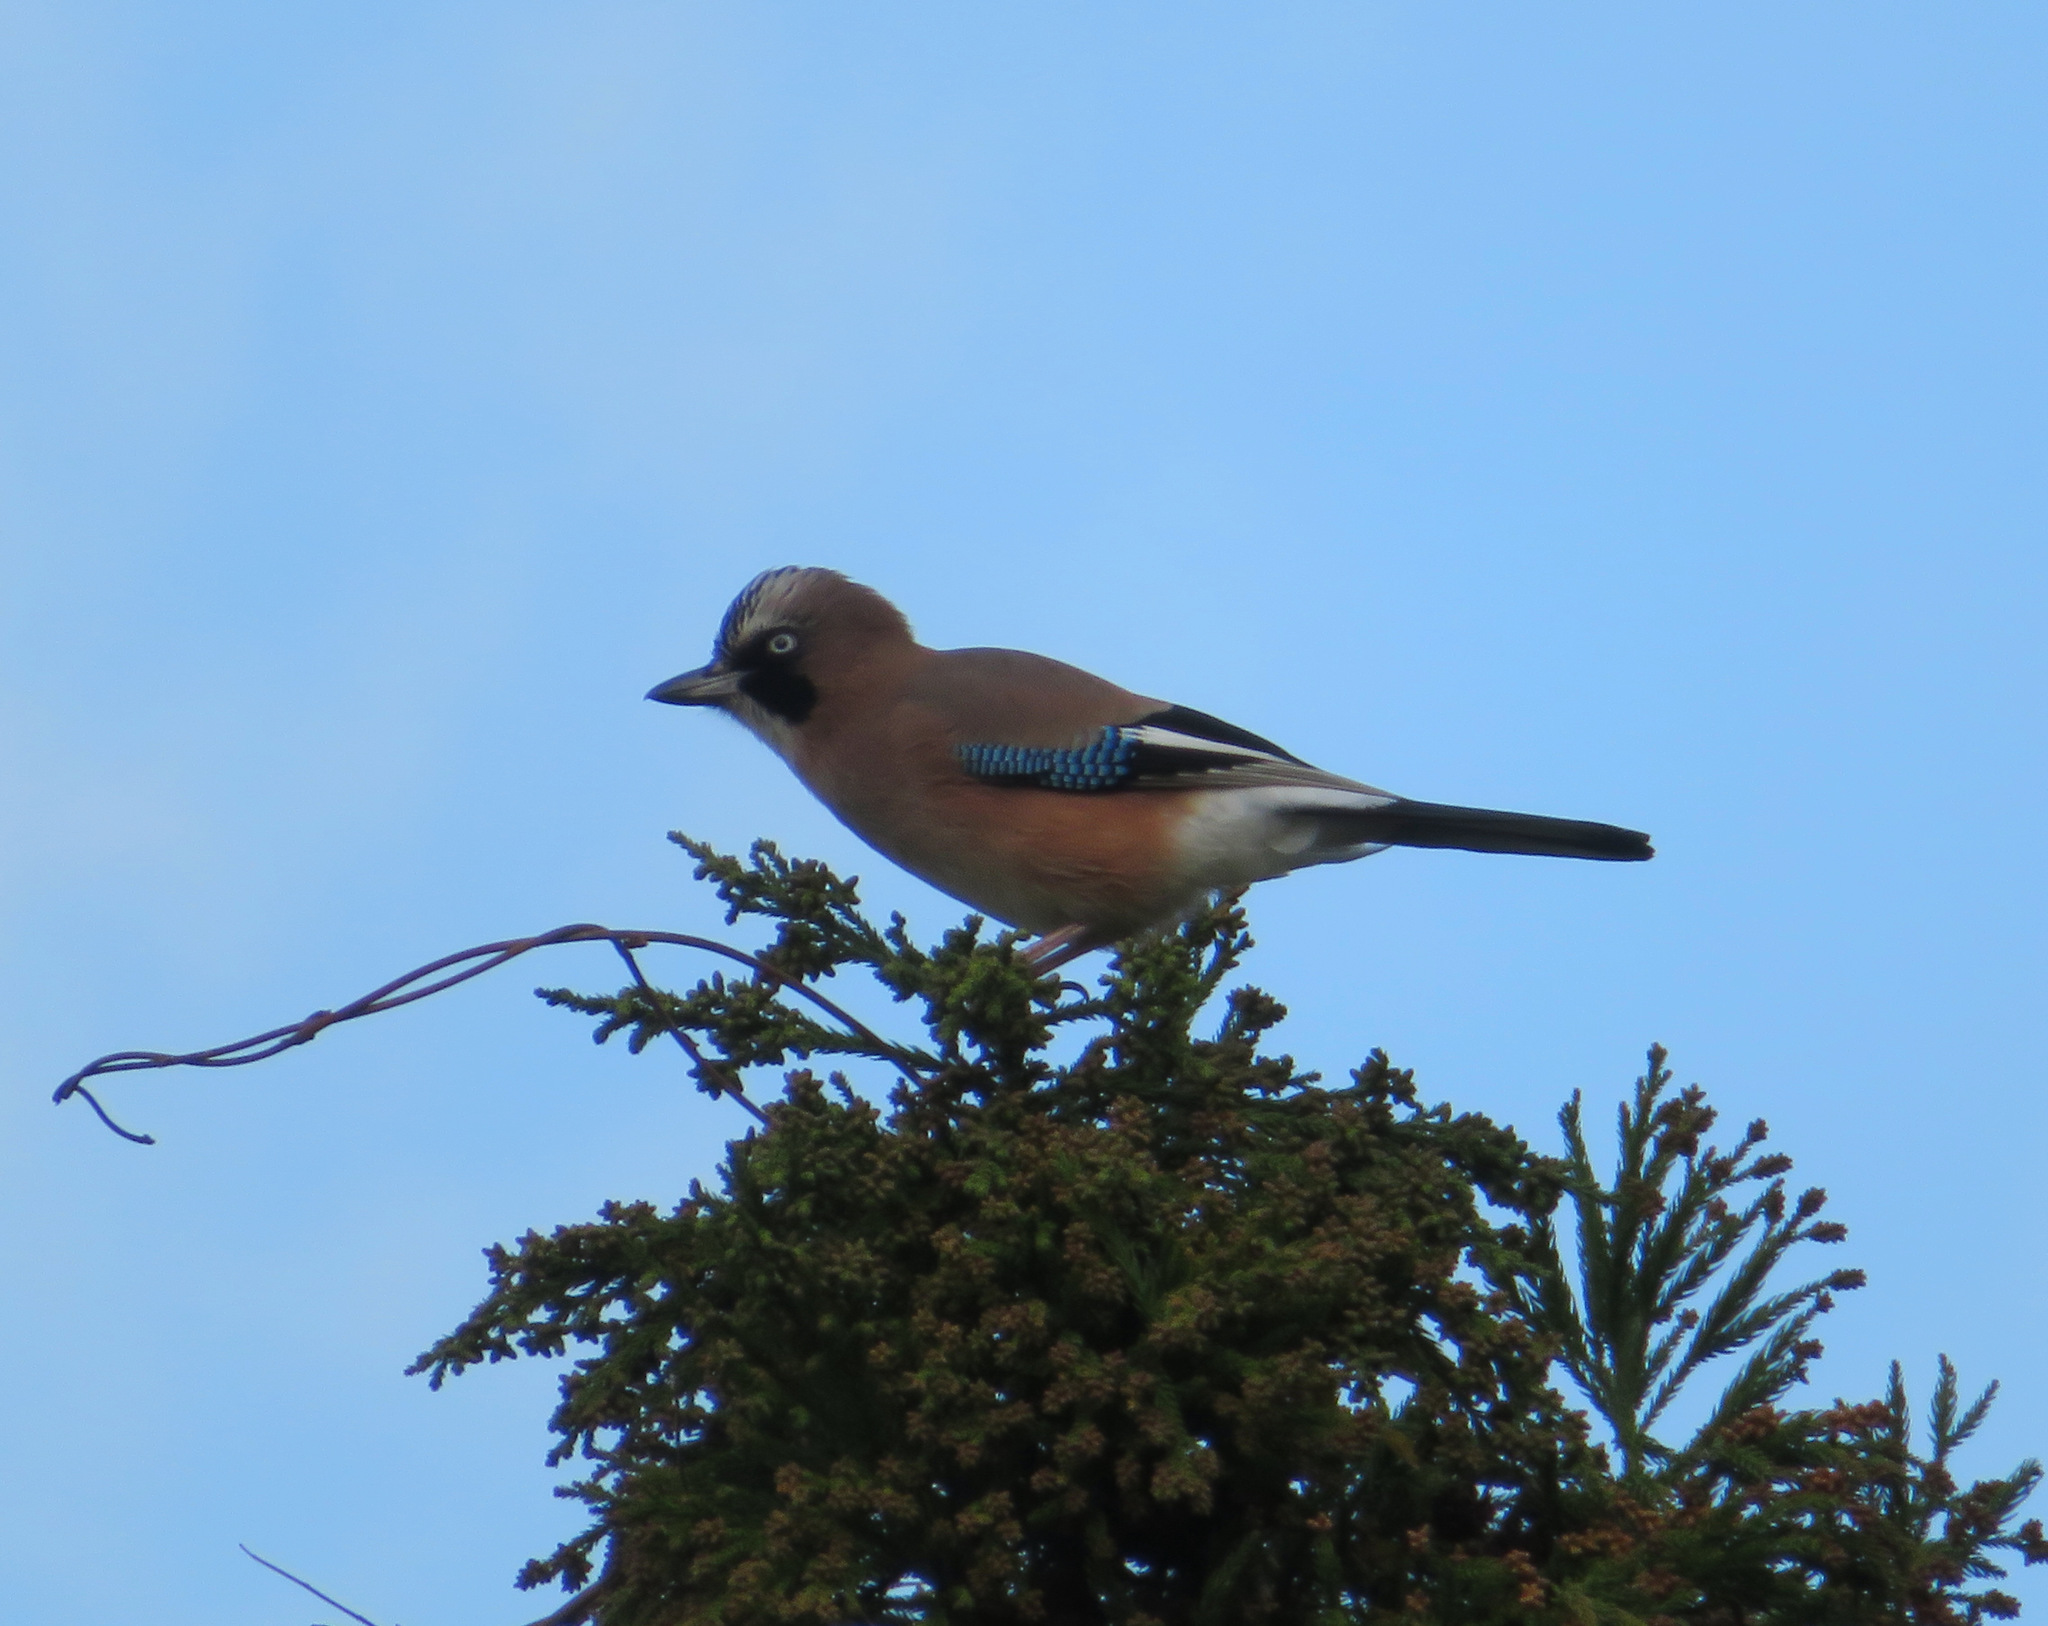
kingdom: Animalia
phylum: Chordata
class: Aves
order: Passeriformes
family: Corvidae
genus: Garrulus
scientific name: Garrulus glandarius
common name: Eurasian jay
